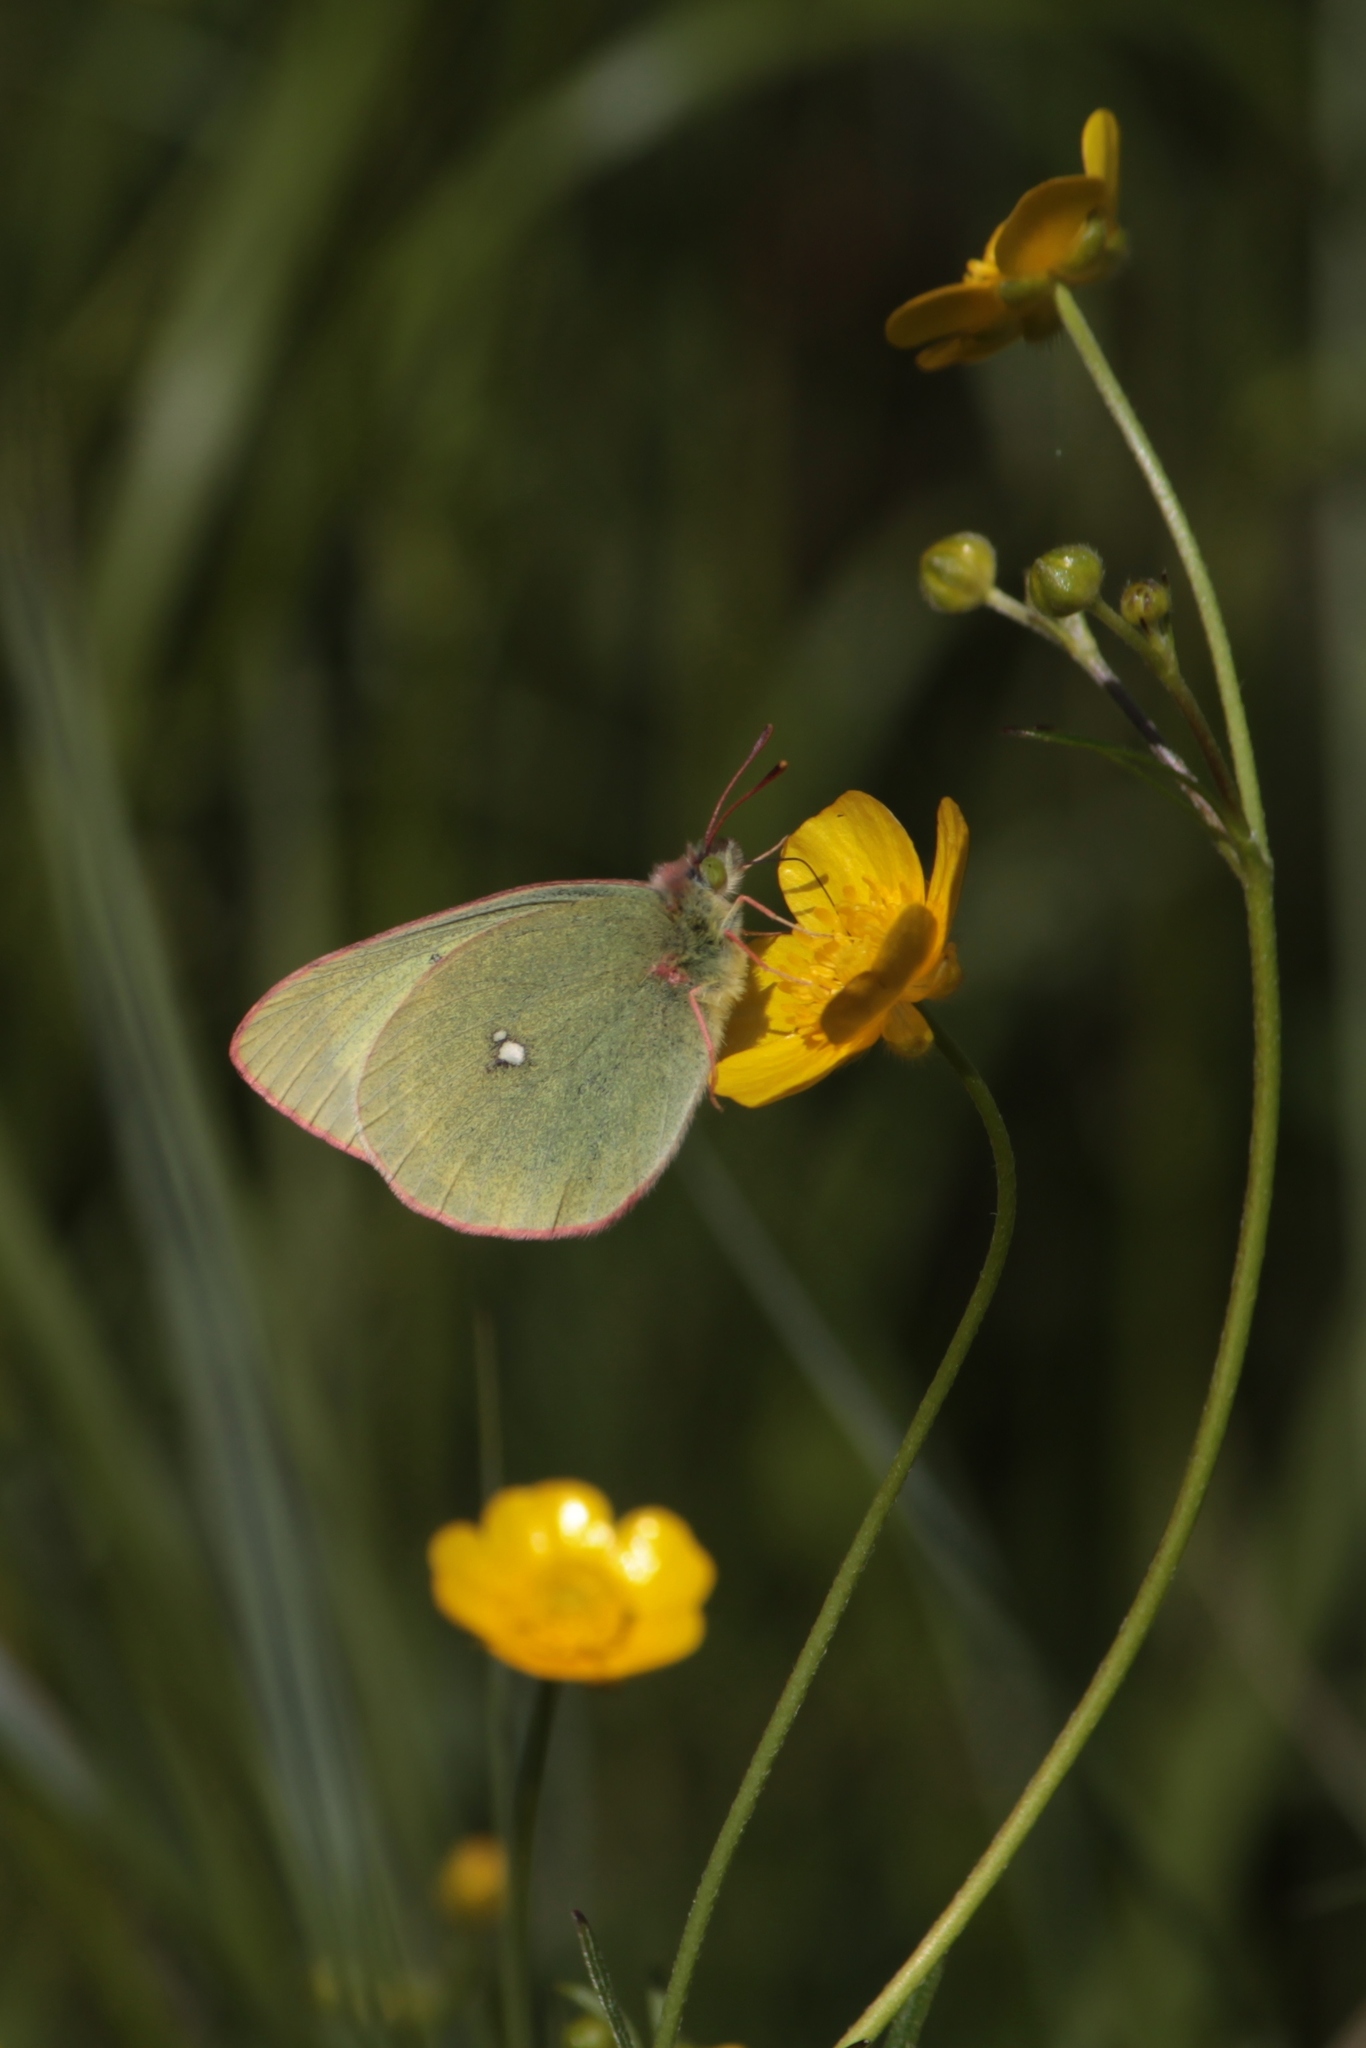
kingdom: Animalia
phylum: Arthropoda
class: Insecta
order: Lepidoptera
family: Pieridae
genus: Colias
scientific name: Colias palaeno
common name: Moorland clouded yellow
